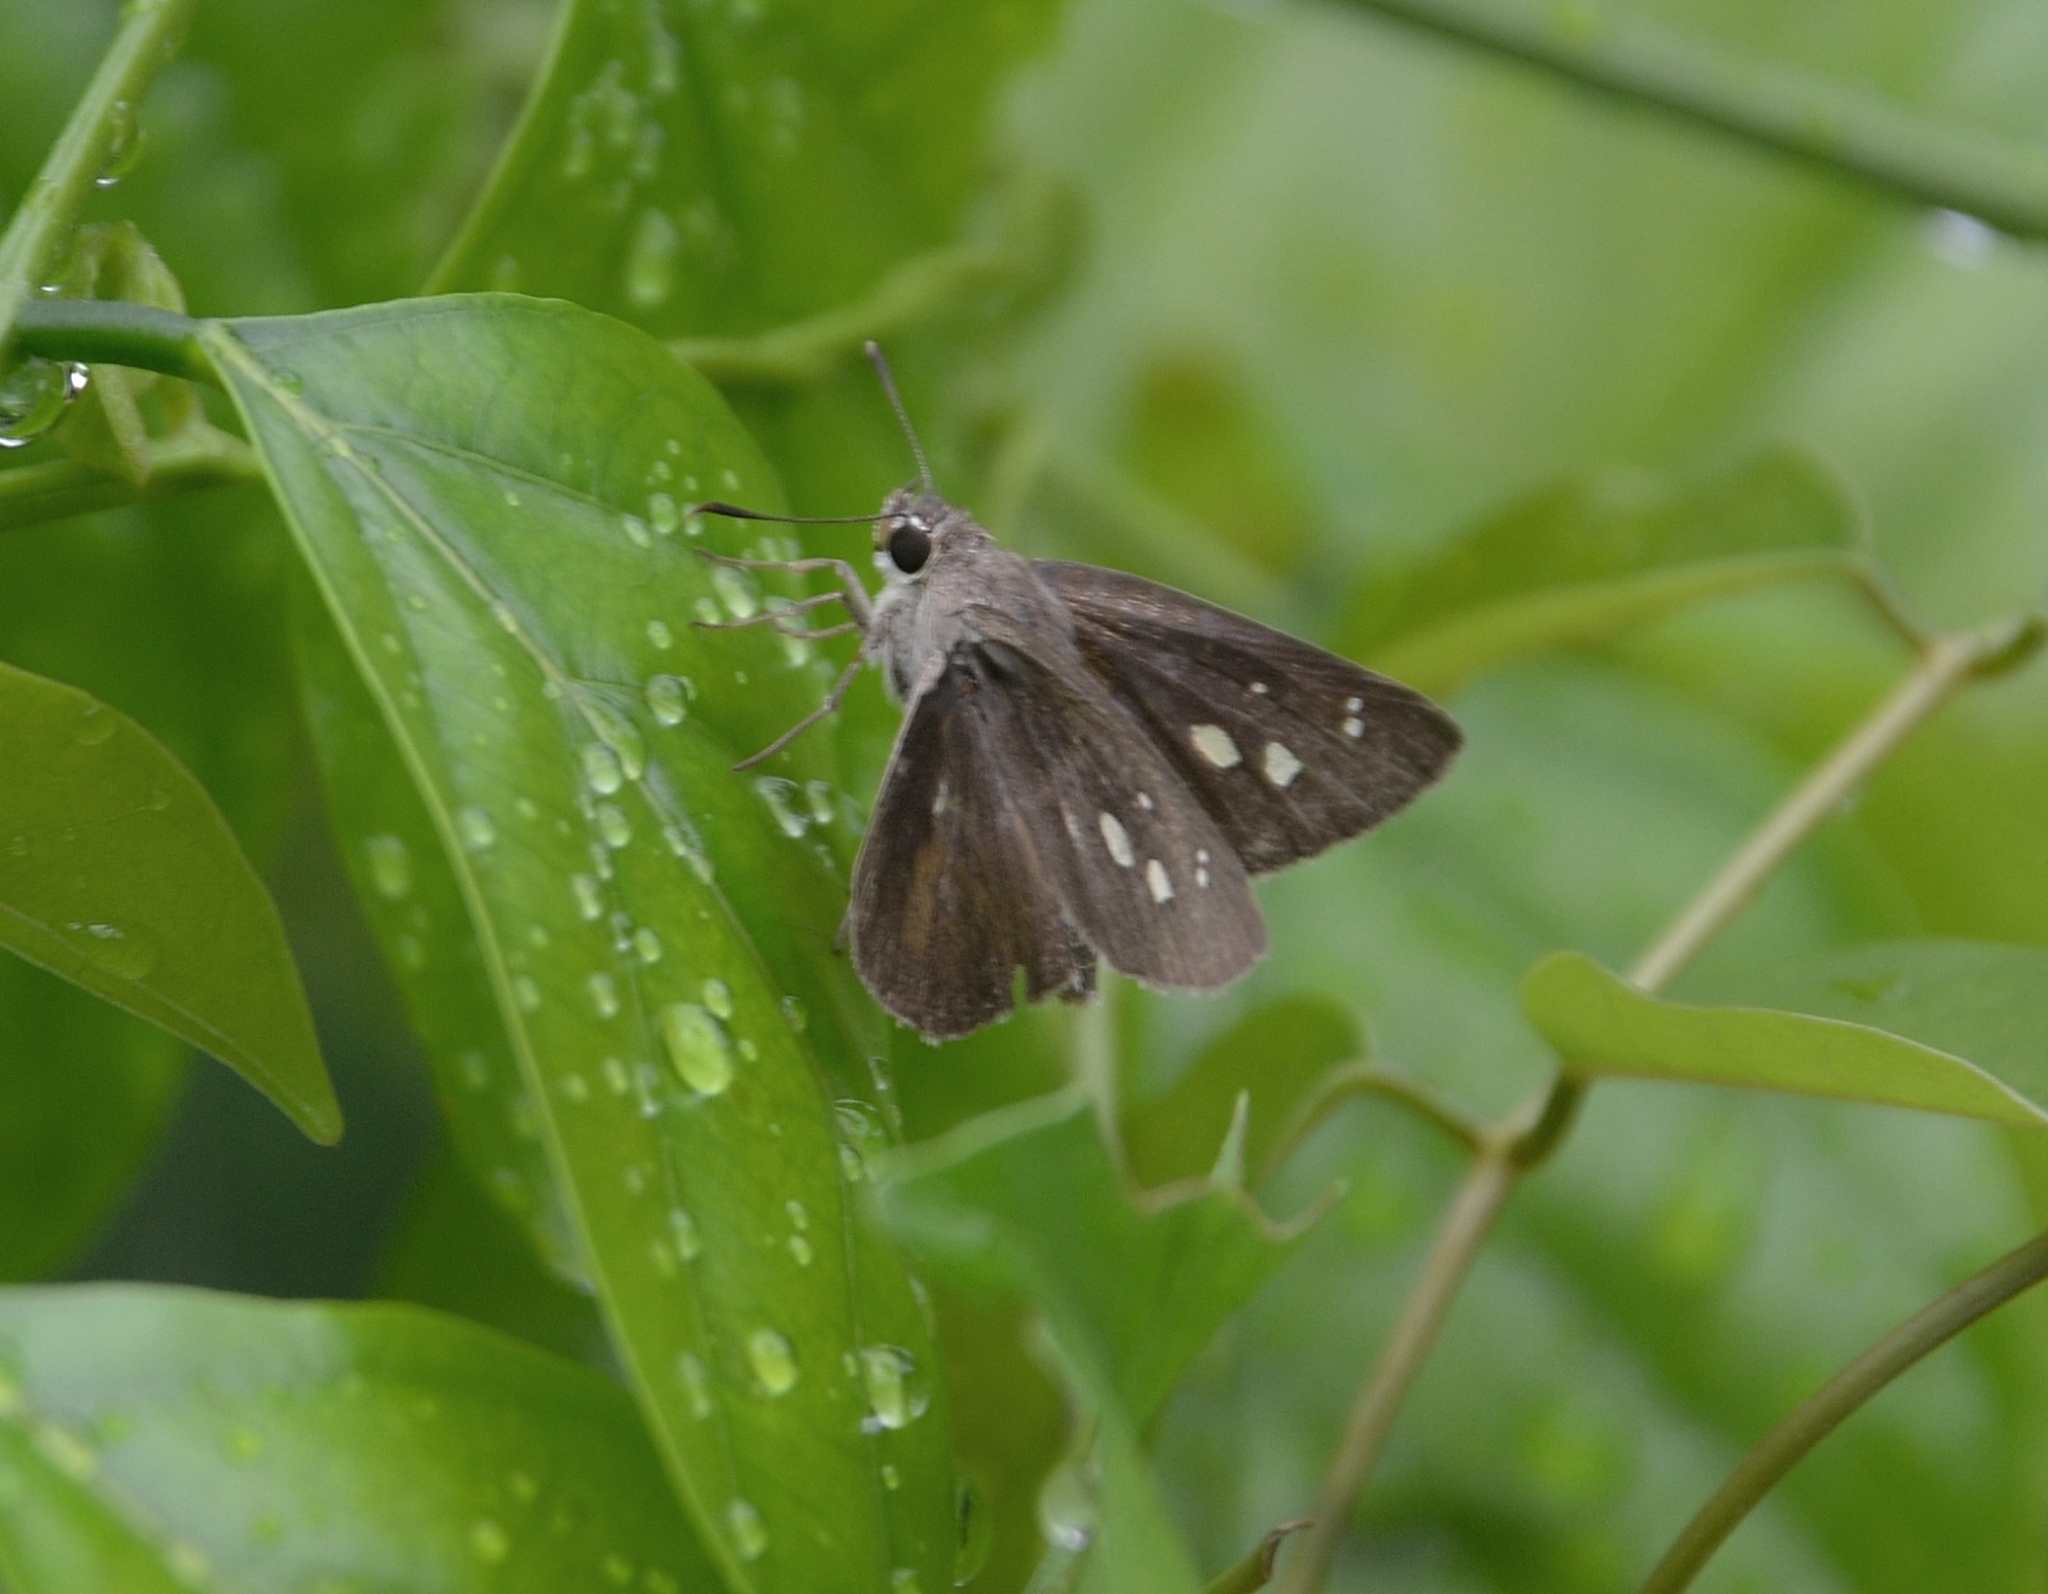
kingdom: Animalia
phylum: Arthropoda
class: Insecta
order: Lepidoptera
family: Hesperiidae
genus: Suastus
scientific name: Suastus gremius
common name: Indian palm bob
